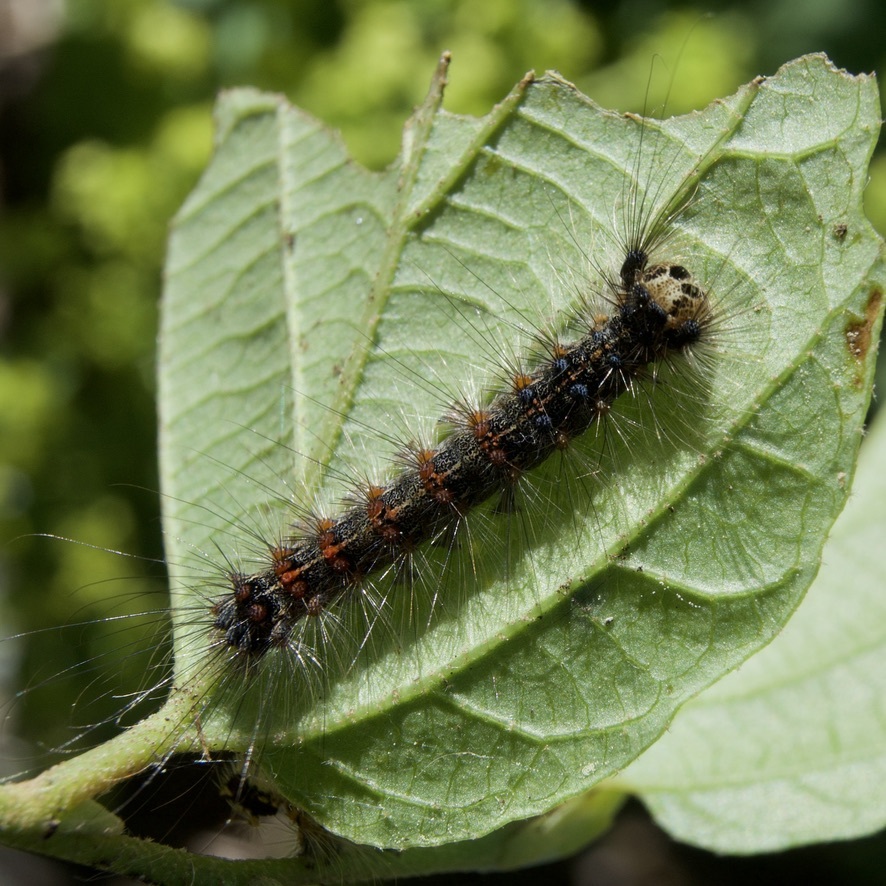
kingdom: Animalia
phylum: Arthropoda
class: Insecta
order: Lepidoptera
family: Erebidae
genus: Lymantria
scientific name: Lymantria dispar
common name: Gypsy moth
